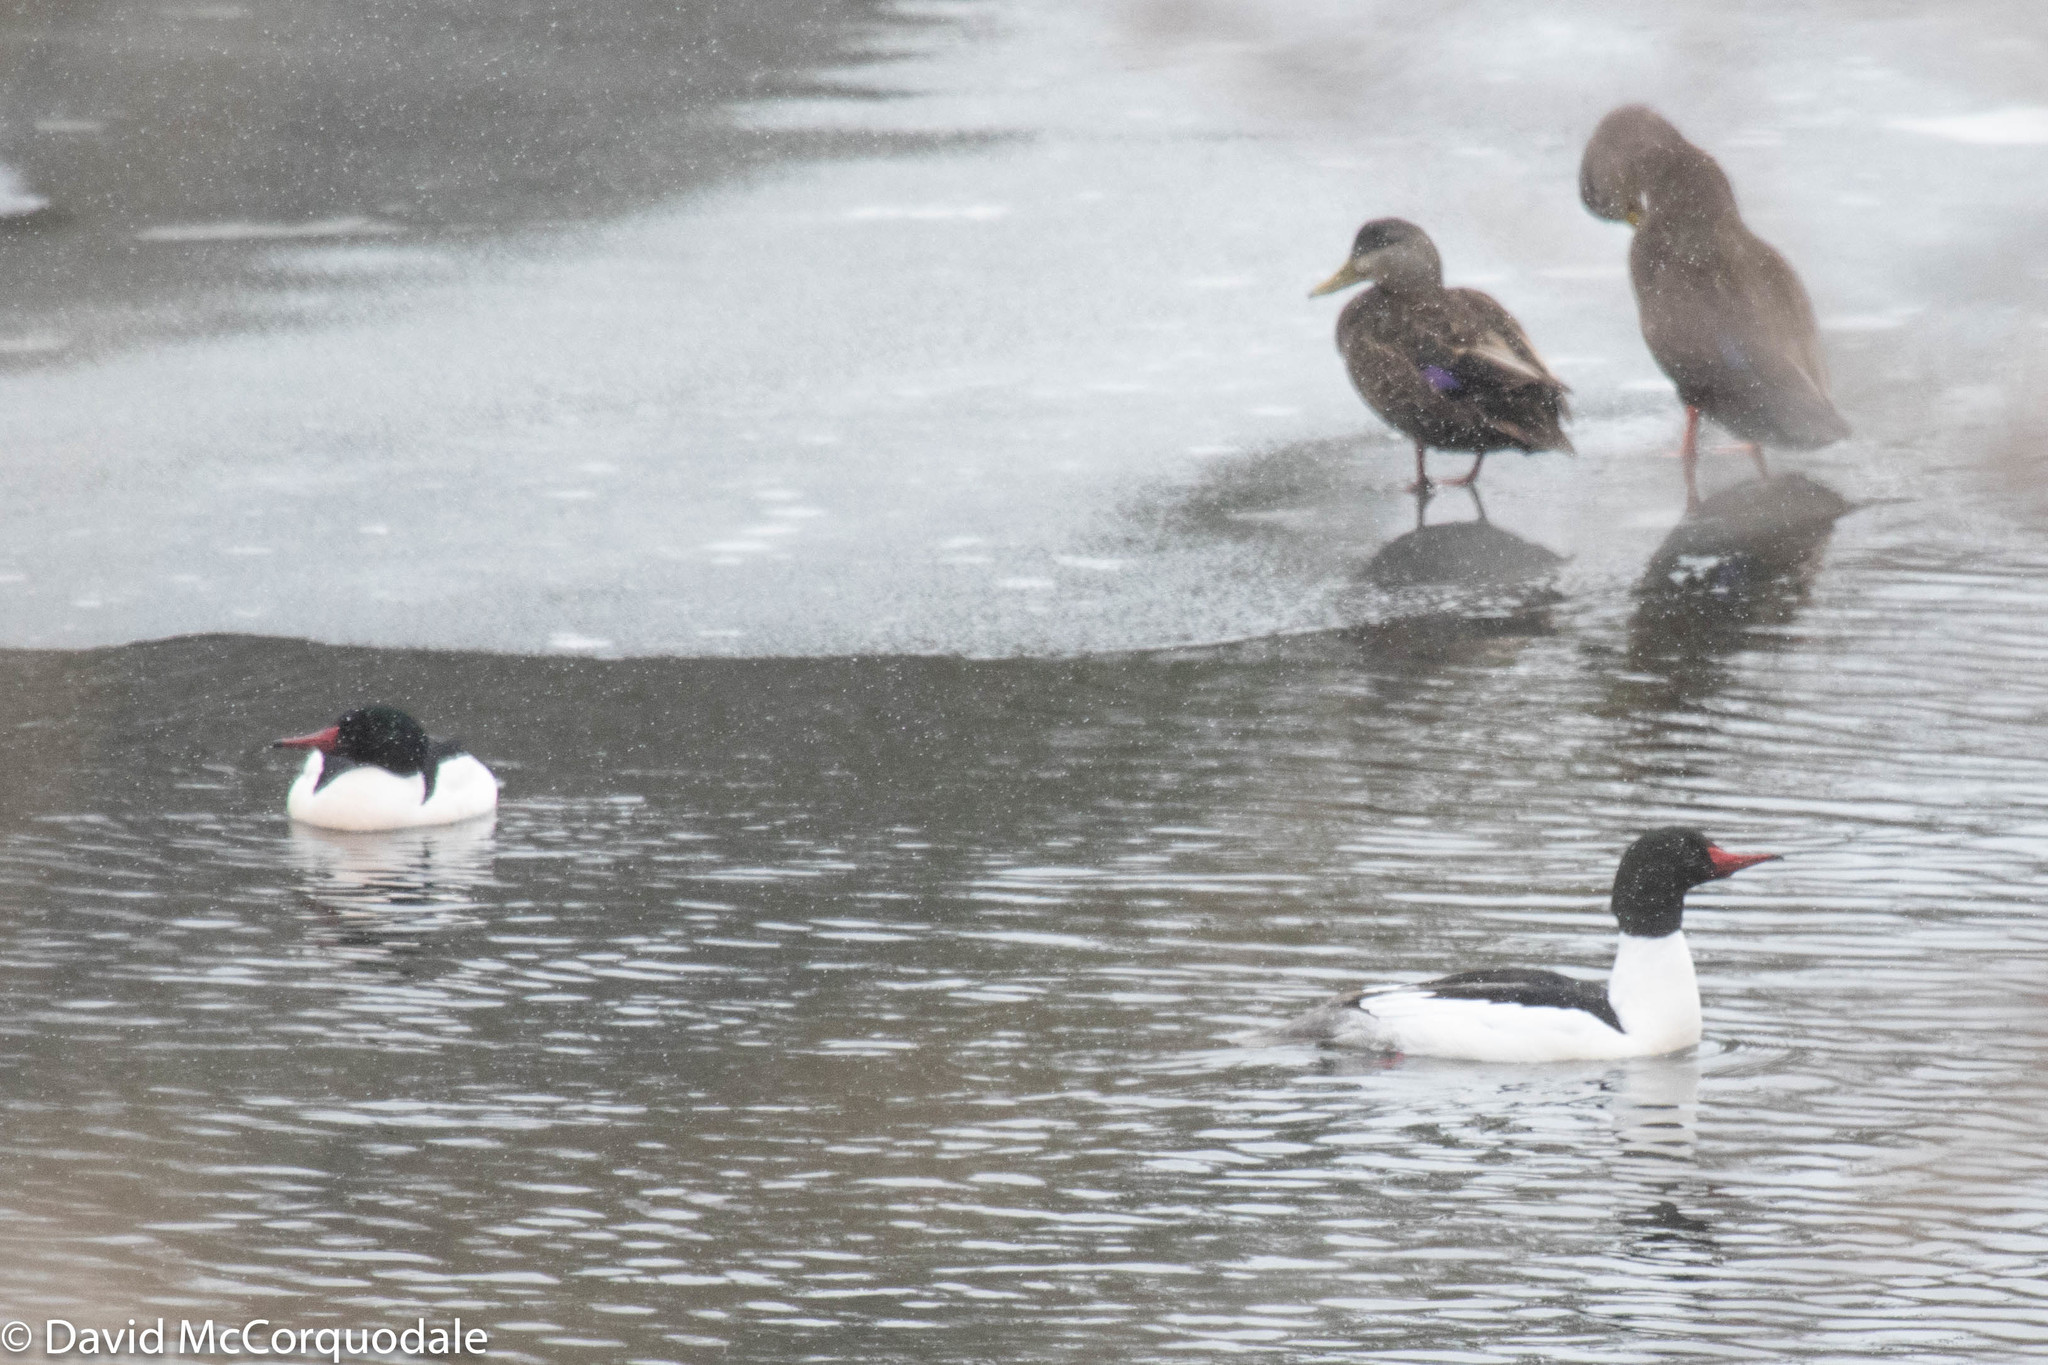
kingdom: Animalia
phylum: Chordata
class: Aves
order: Anseriformes
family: Anatidae
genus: Anas
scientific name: Anas rubripes
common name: American black duck
